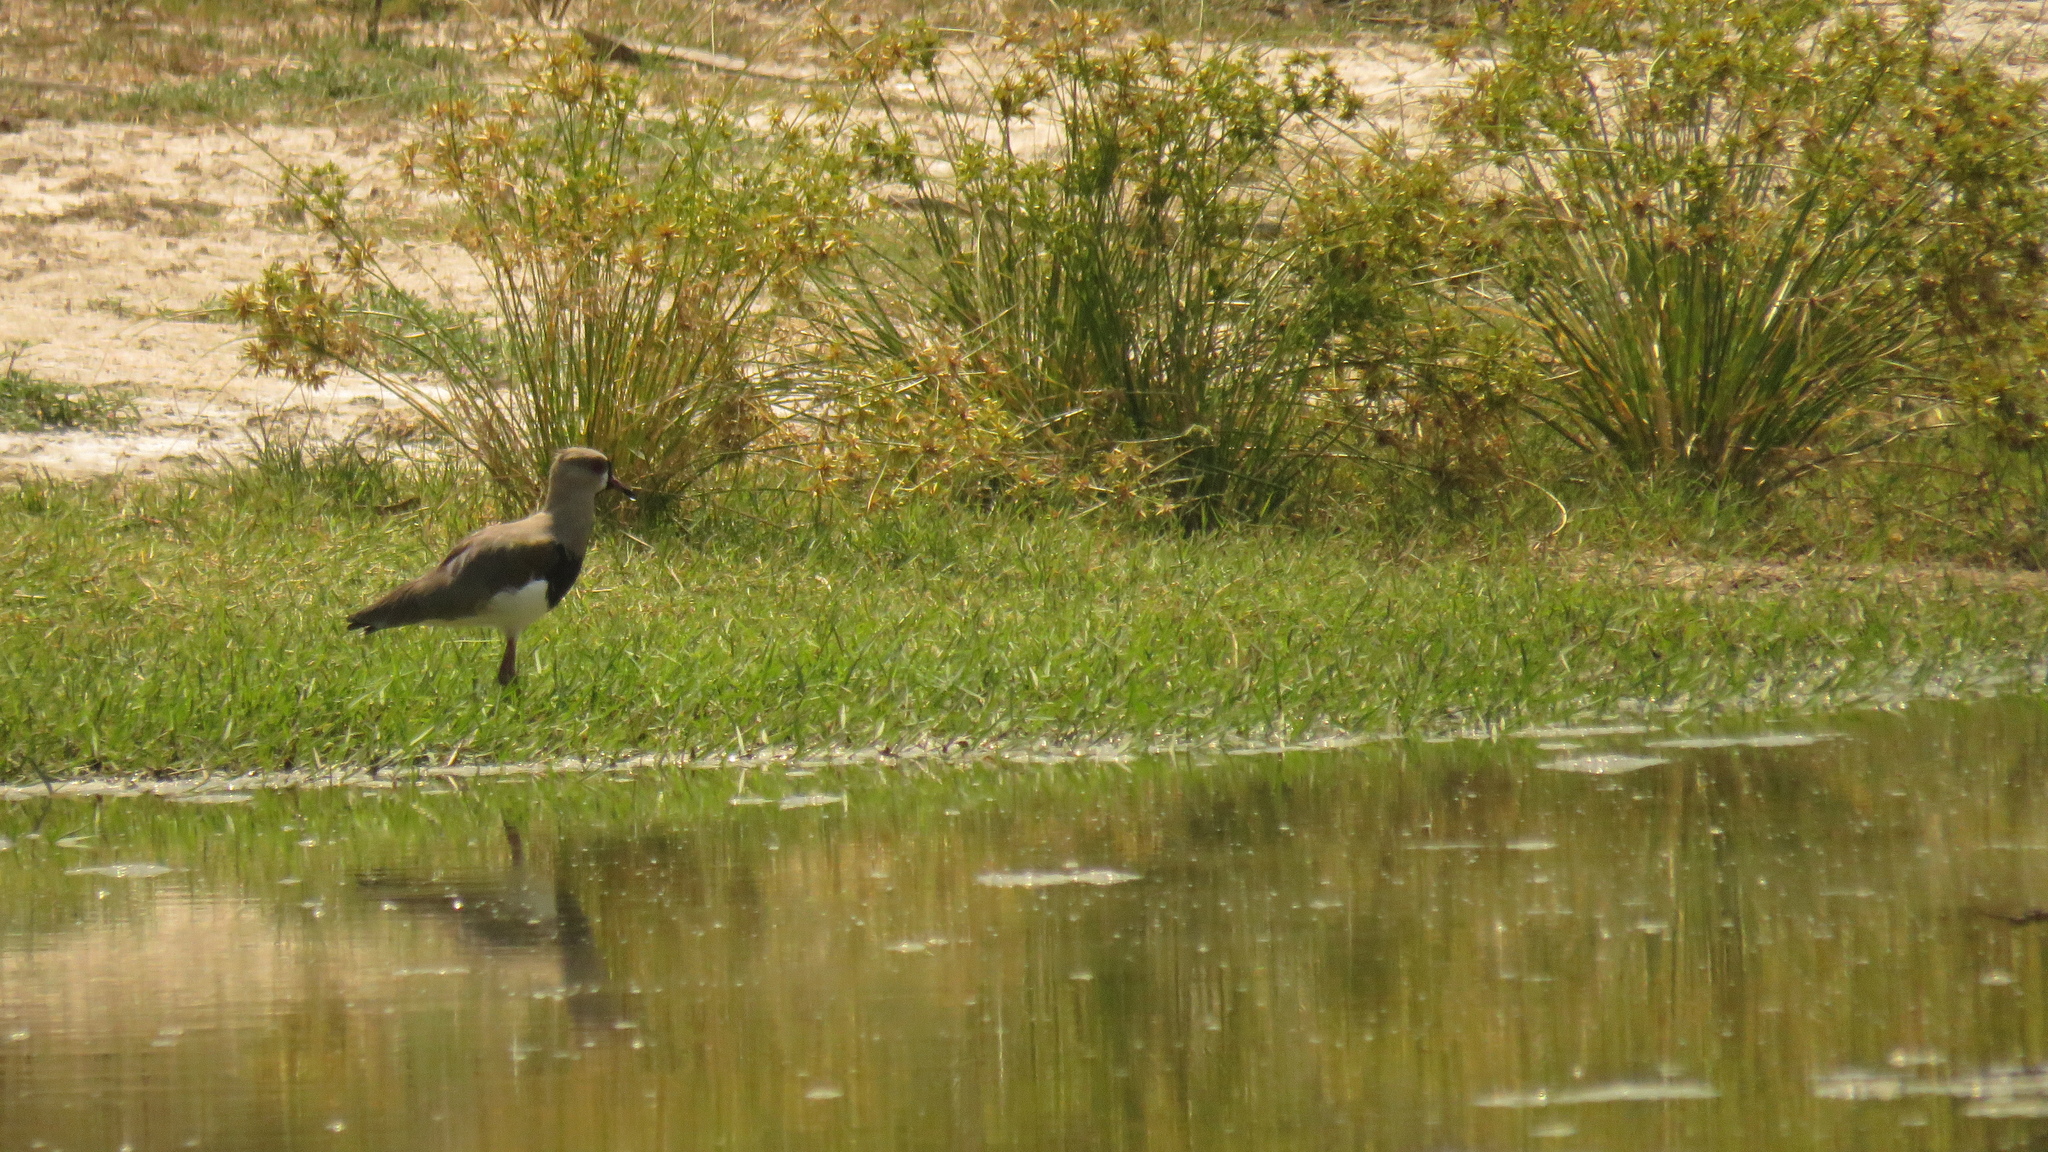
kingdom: Animalia
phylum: Chordata
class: Aves
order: Charadriiformes
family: Charadriidae
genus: Vanellus
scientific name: Vanellus chilensis
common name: Southern lapwing
